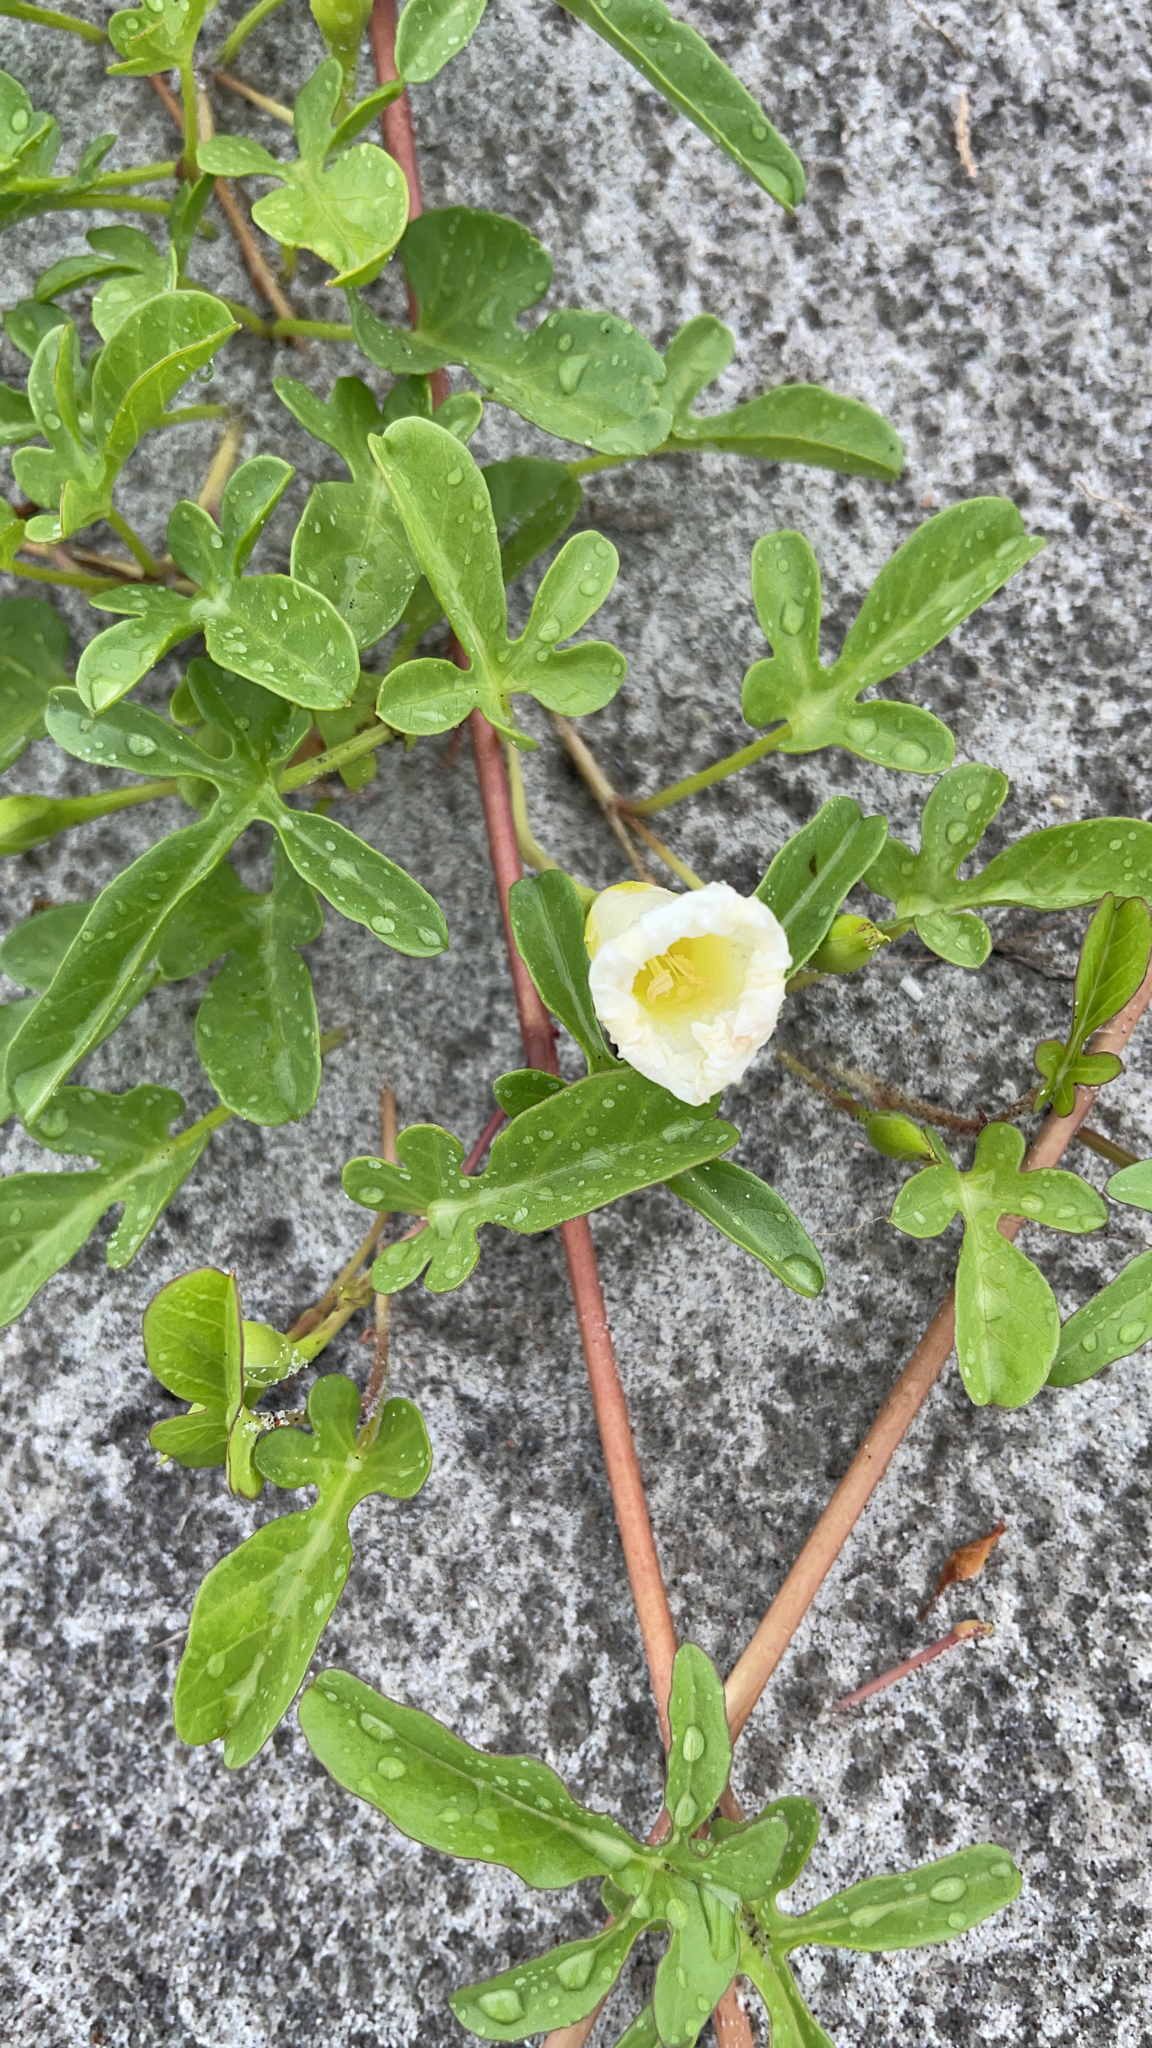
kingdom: Plantae
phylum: Tracheophyta
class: Magnoliopsida
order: Solanales
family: Convolvulaceae
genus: Ipomoea
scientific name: Ipomoea imperati
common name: Fiddle-leaf morning-glory
